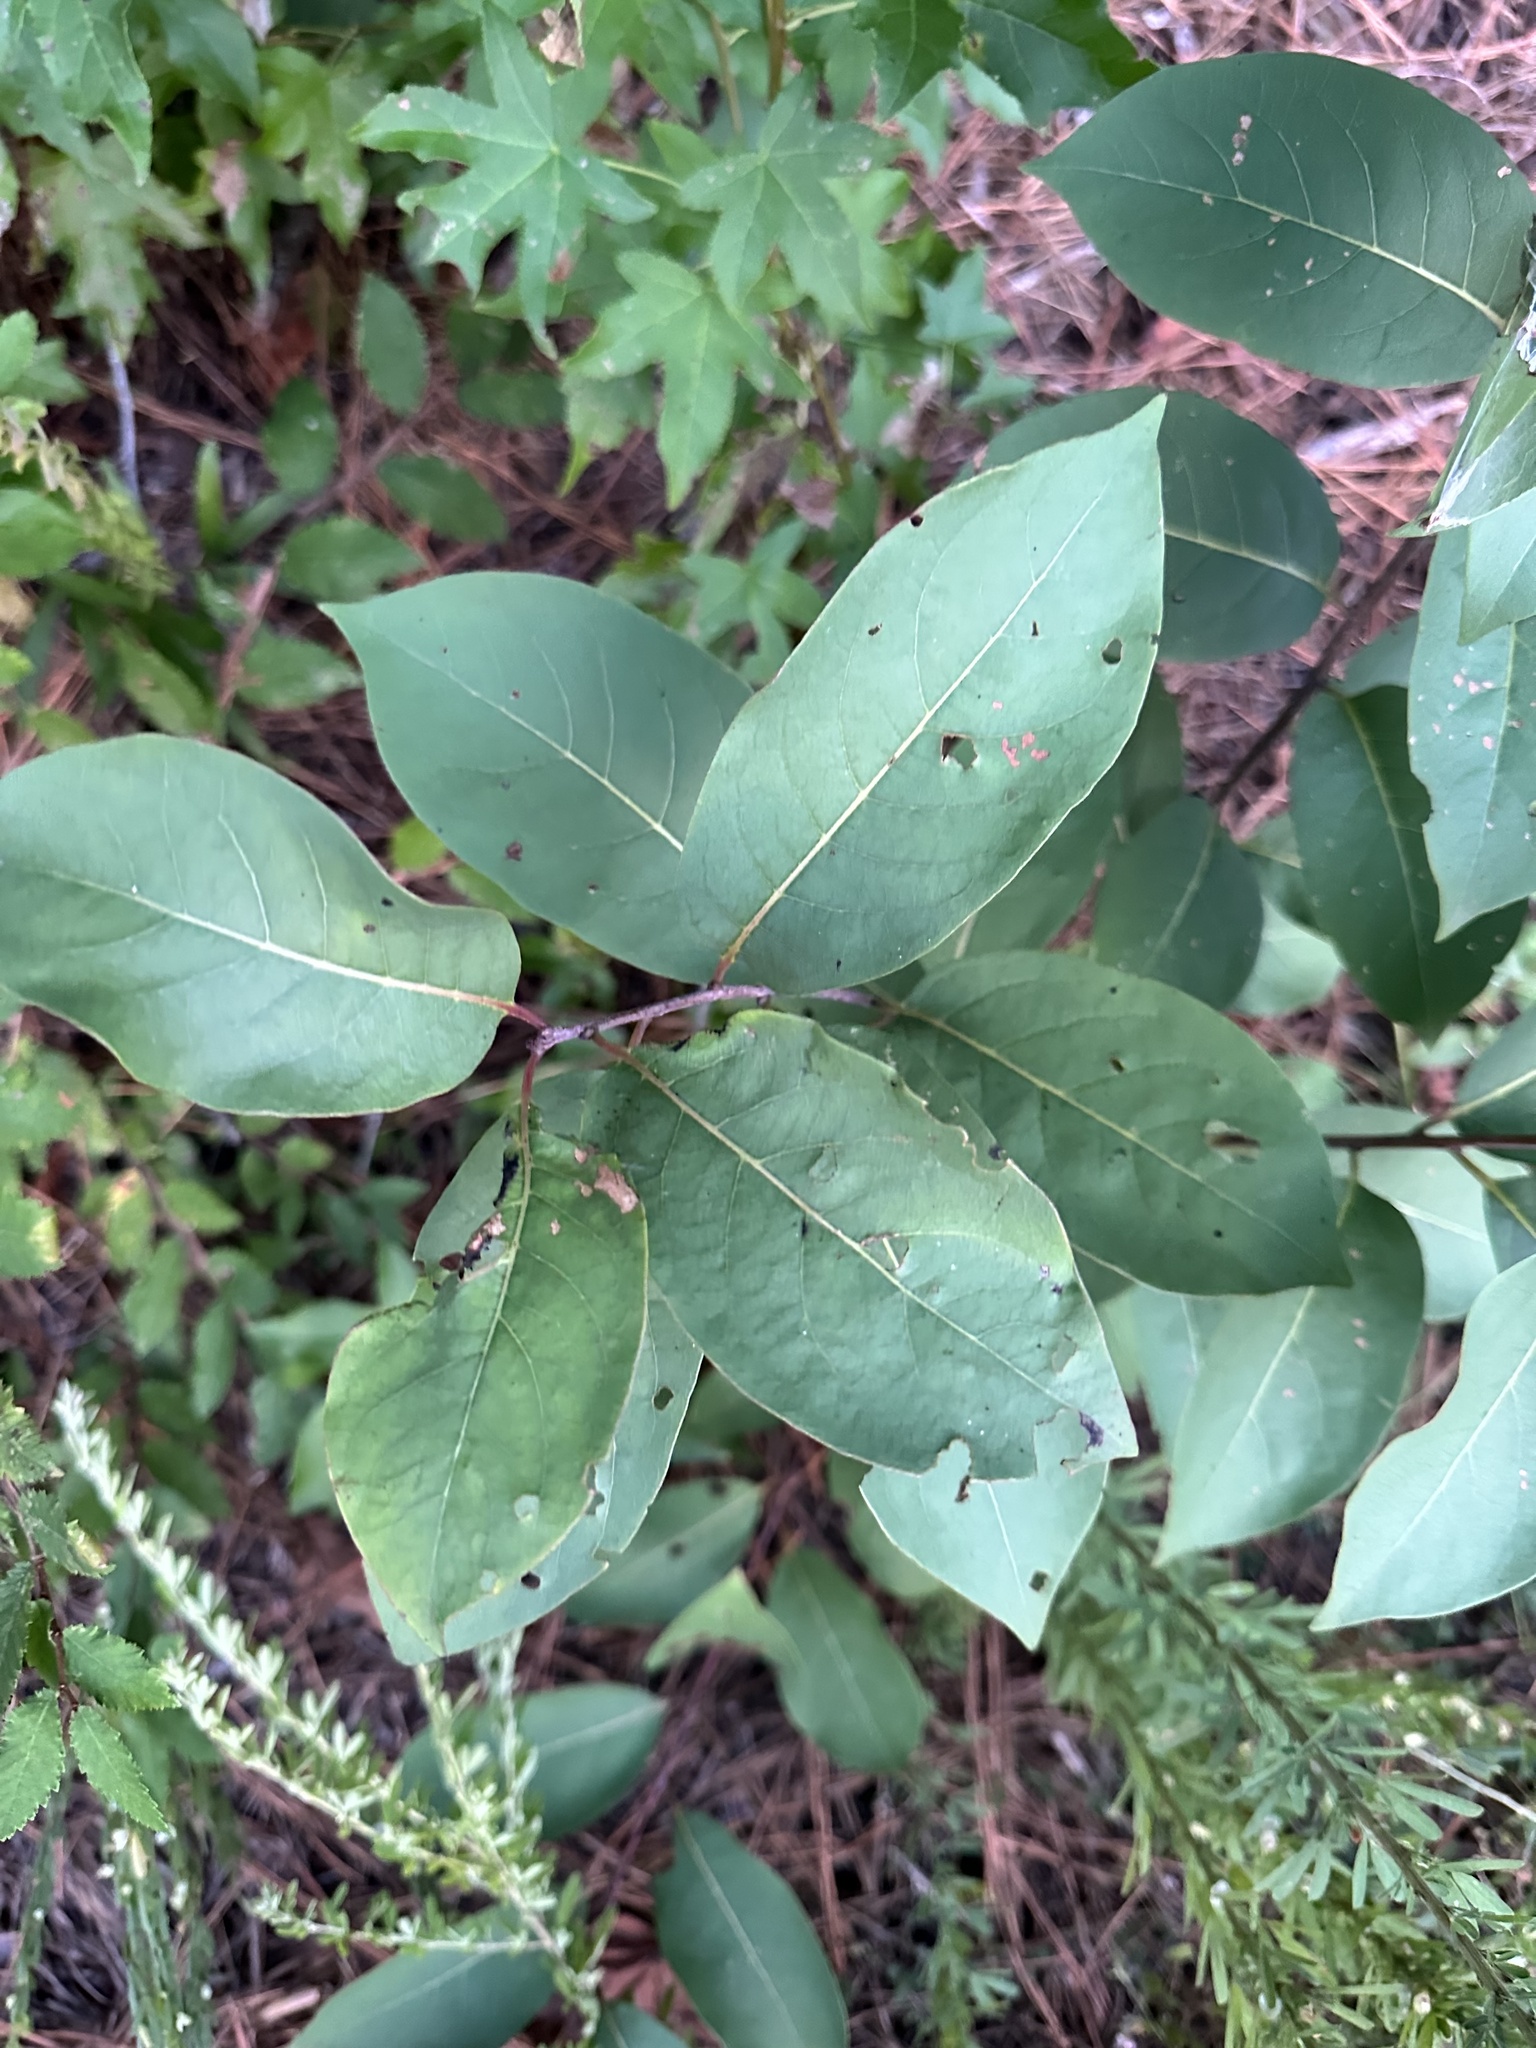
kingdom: Plantae
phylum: Tracheophyta
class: Magnoliopsida
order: Ericales
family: Ebenaceae
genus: Diospyros
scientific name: Diospyros virginiana
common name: Persimmon
